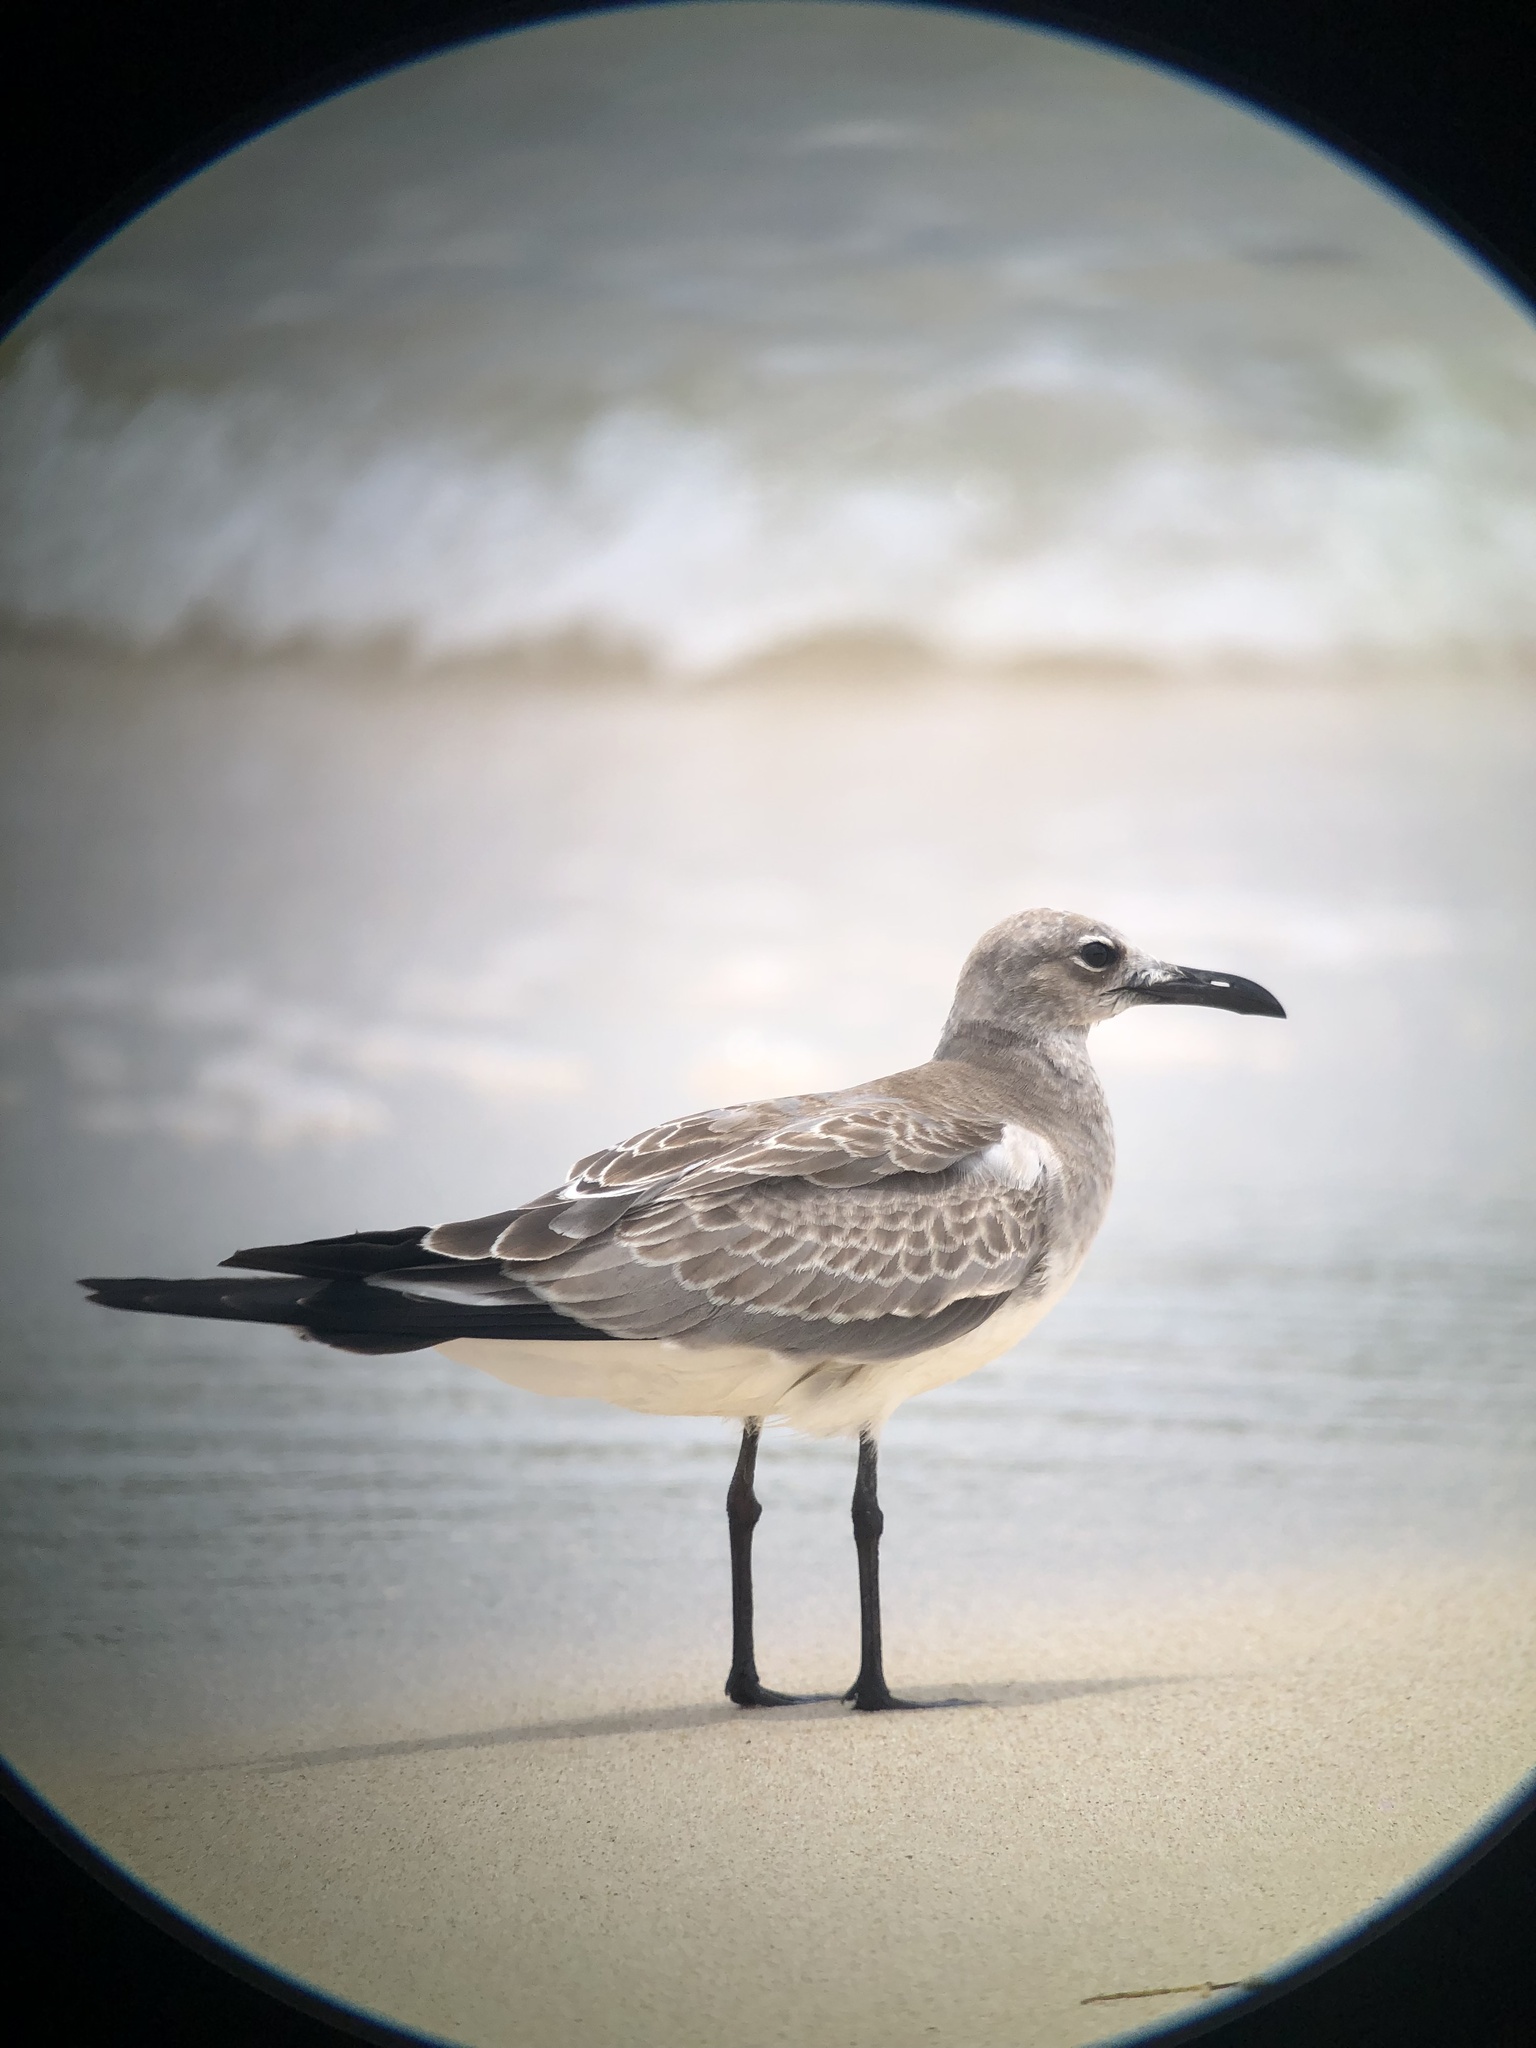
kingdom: Animalia
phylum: Chordata
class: Aves
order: Charadriiformes
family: Laridae
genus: Leucophaeus
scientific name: Leucophaeus atricilla
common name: Laughing gull
